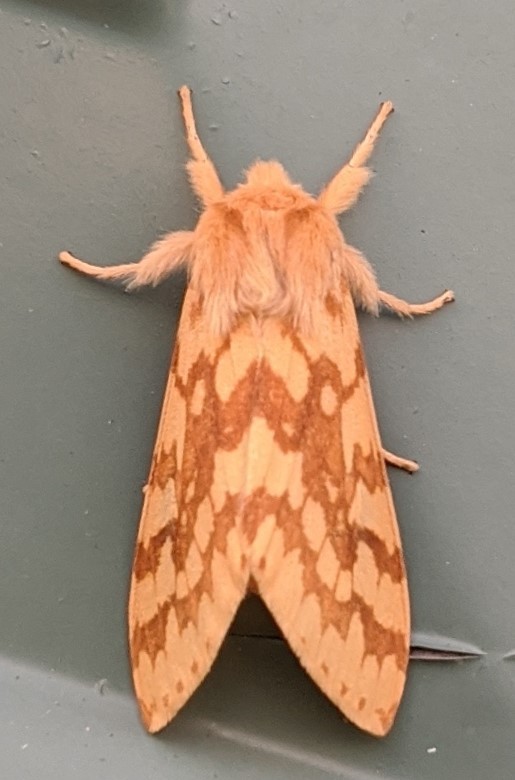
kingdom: Animalia
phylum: Arthropoda
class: Insecta
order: Lepidoptera
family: Erebidae
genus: Lophocampa
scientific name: Lophocampa maculata
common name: Spotted tussock moth
